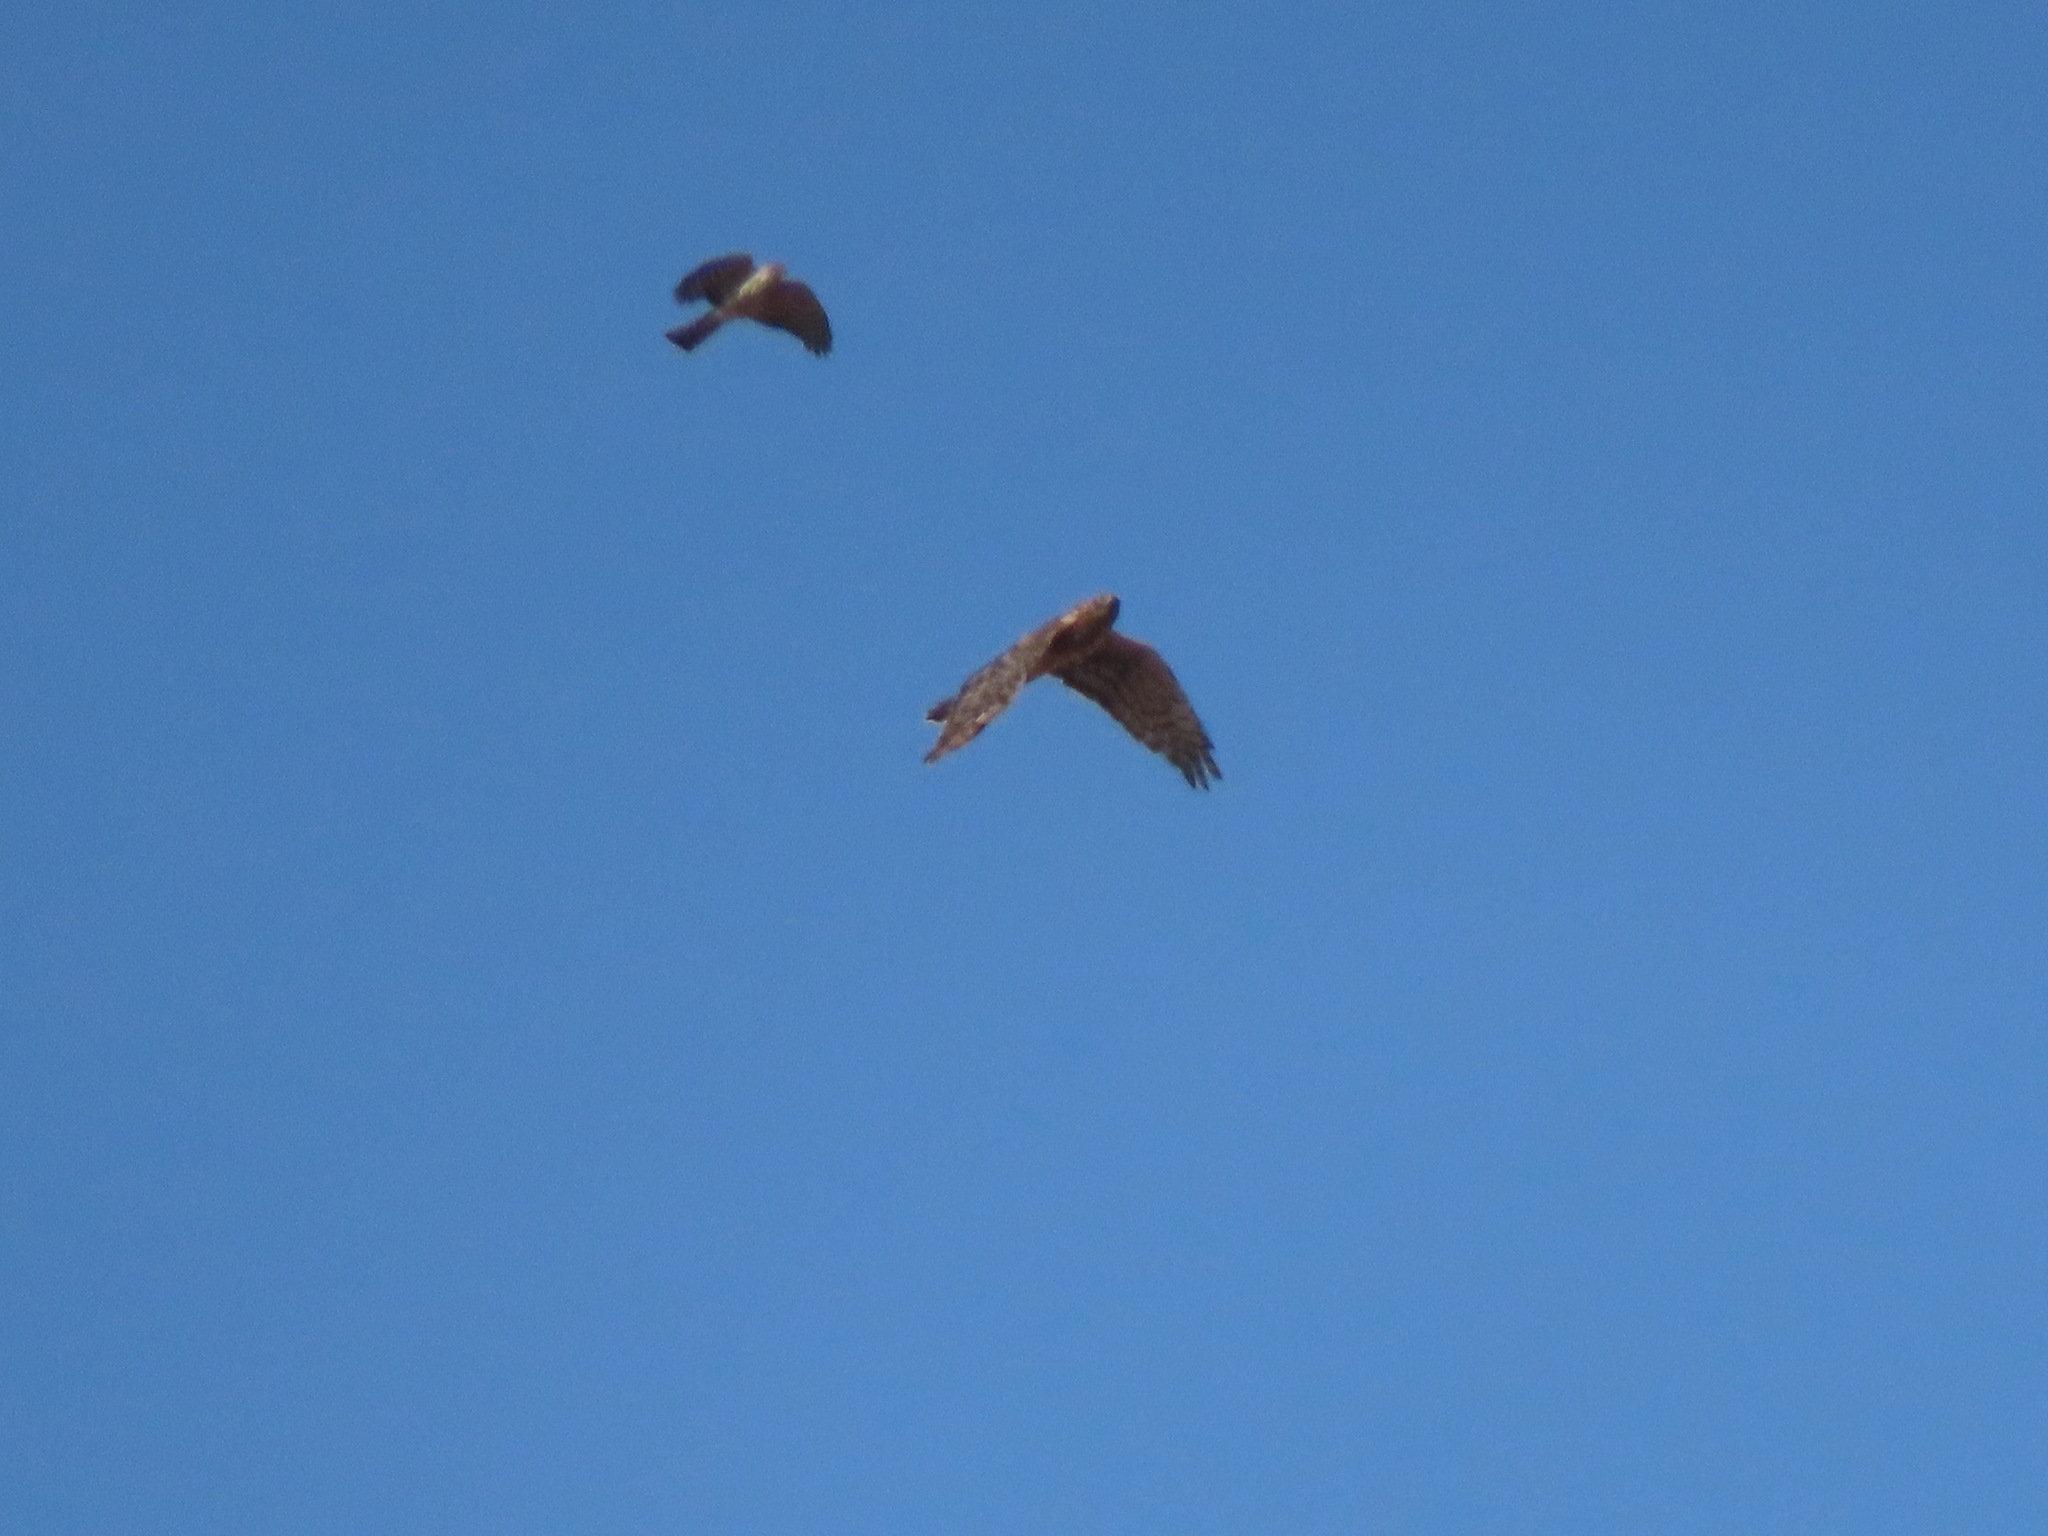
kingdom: Animalia
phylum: Chordata
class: Aves
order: Accipitriformes
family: Accipitridae
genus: Accipiter
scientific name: Accipiter striatus
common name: Sharp-shinned hawk
